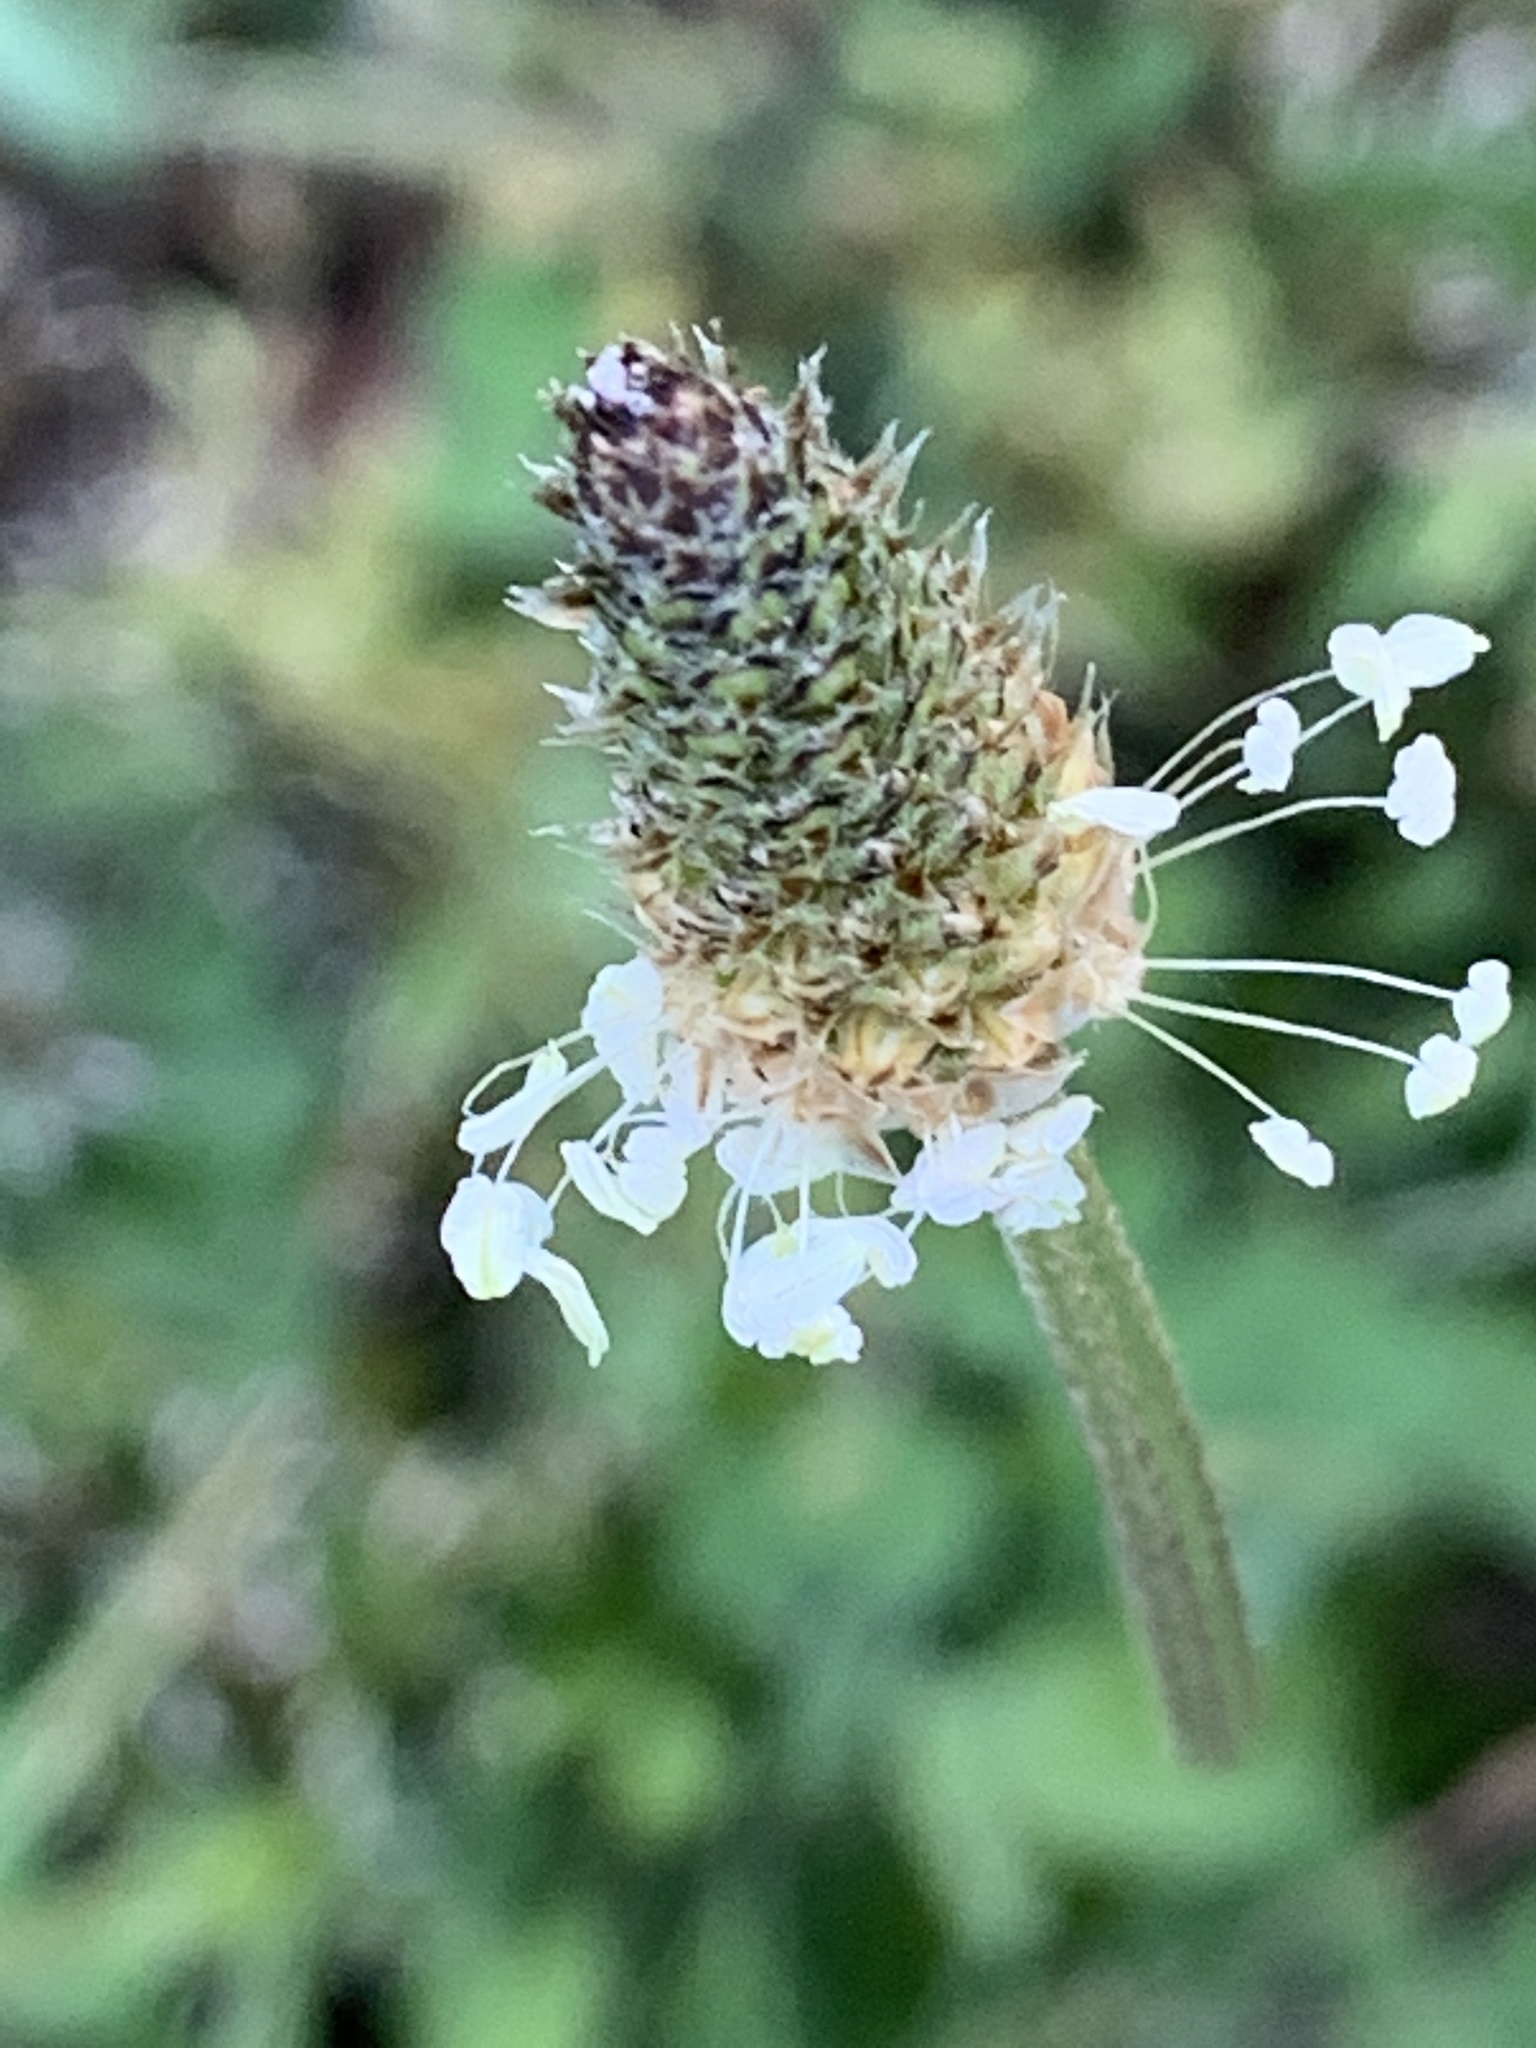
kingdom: Plantae
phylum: Tracheophyta
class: Magnoliopsida
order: Lamiales
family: Plantaginaceae
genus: Plantago
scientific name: Plantago lanceolata
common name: Ribwort plantain
